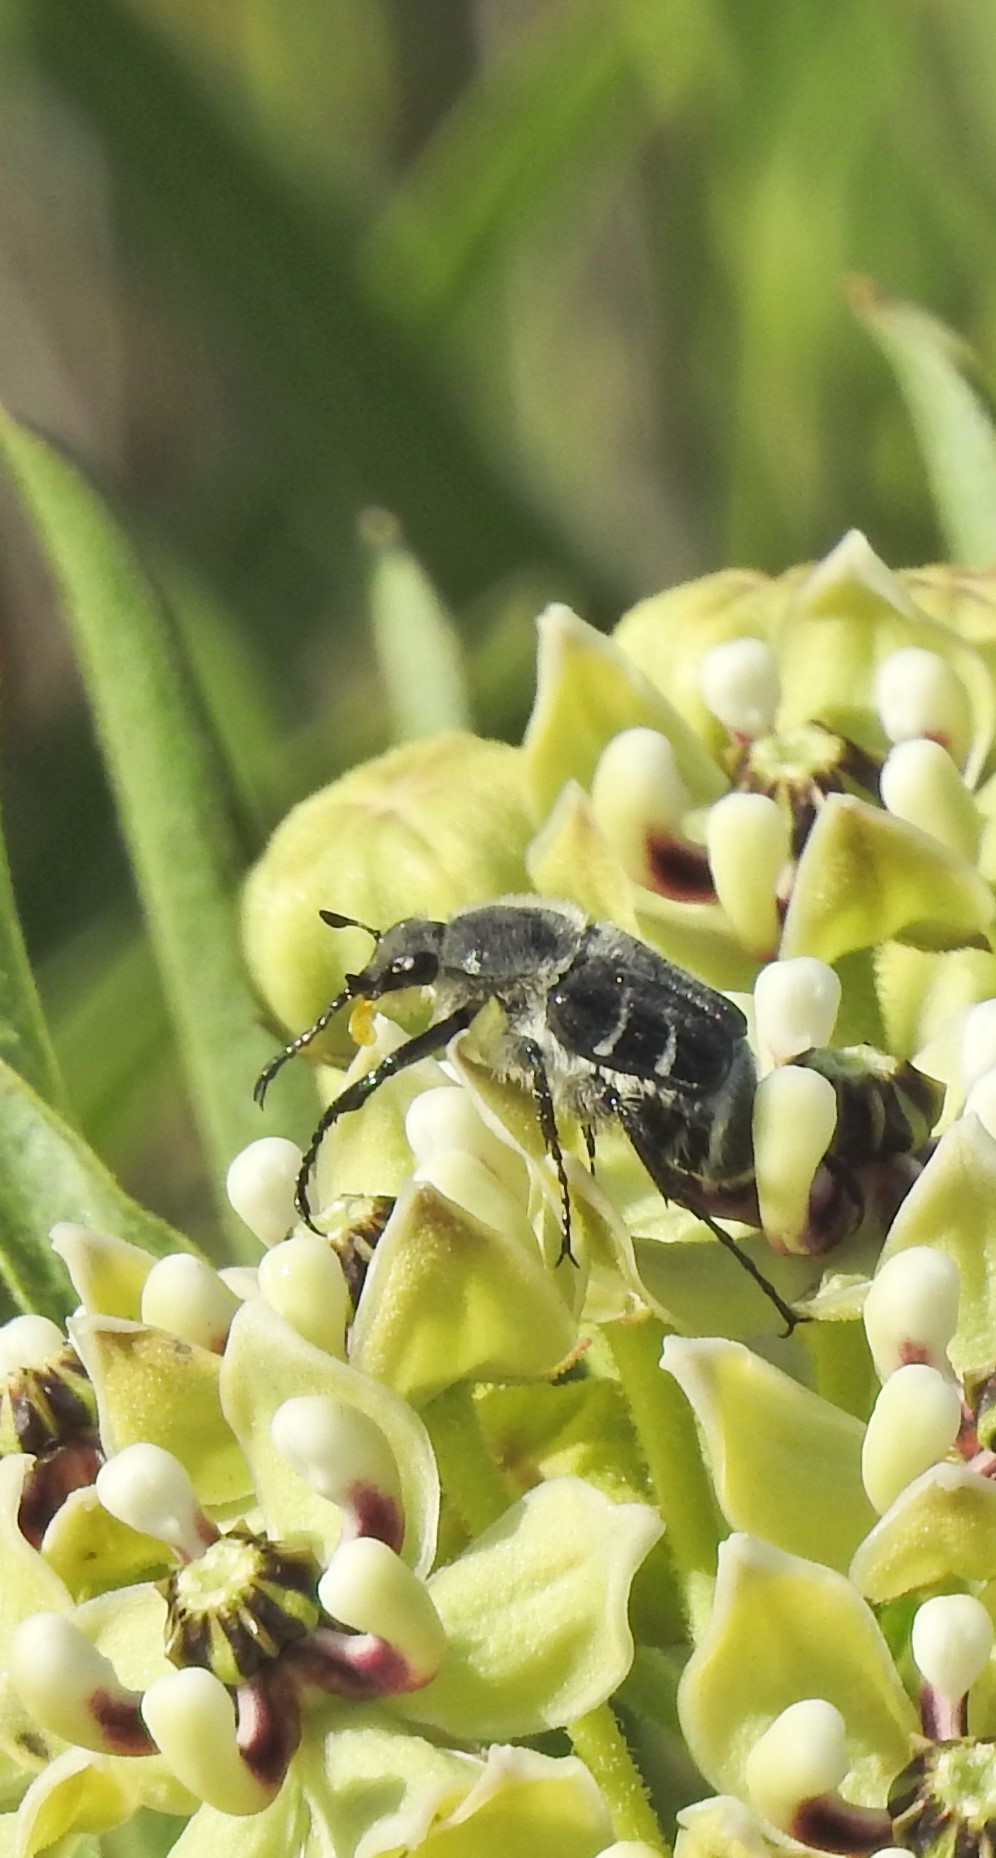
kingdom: Animalia
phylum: Arthropoda
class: Insecta
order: Coleoptera
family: Scarabaeidae
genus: Trichiotinus
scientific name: Trichiotinus texanus
